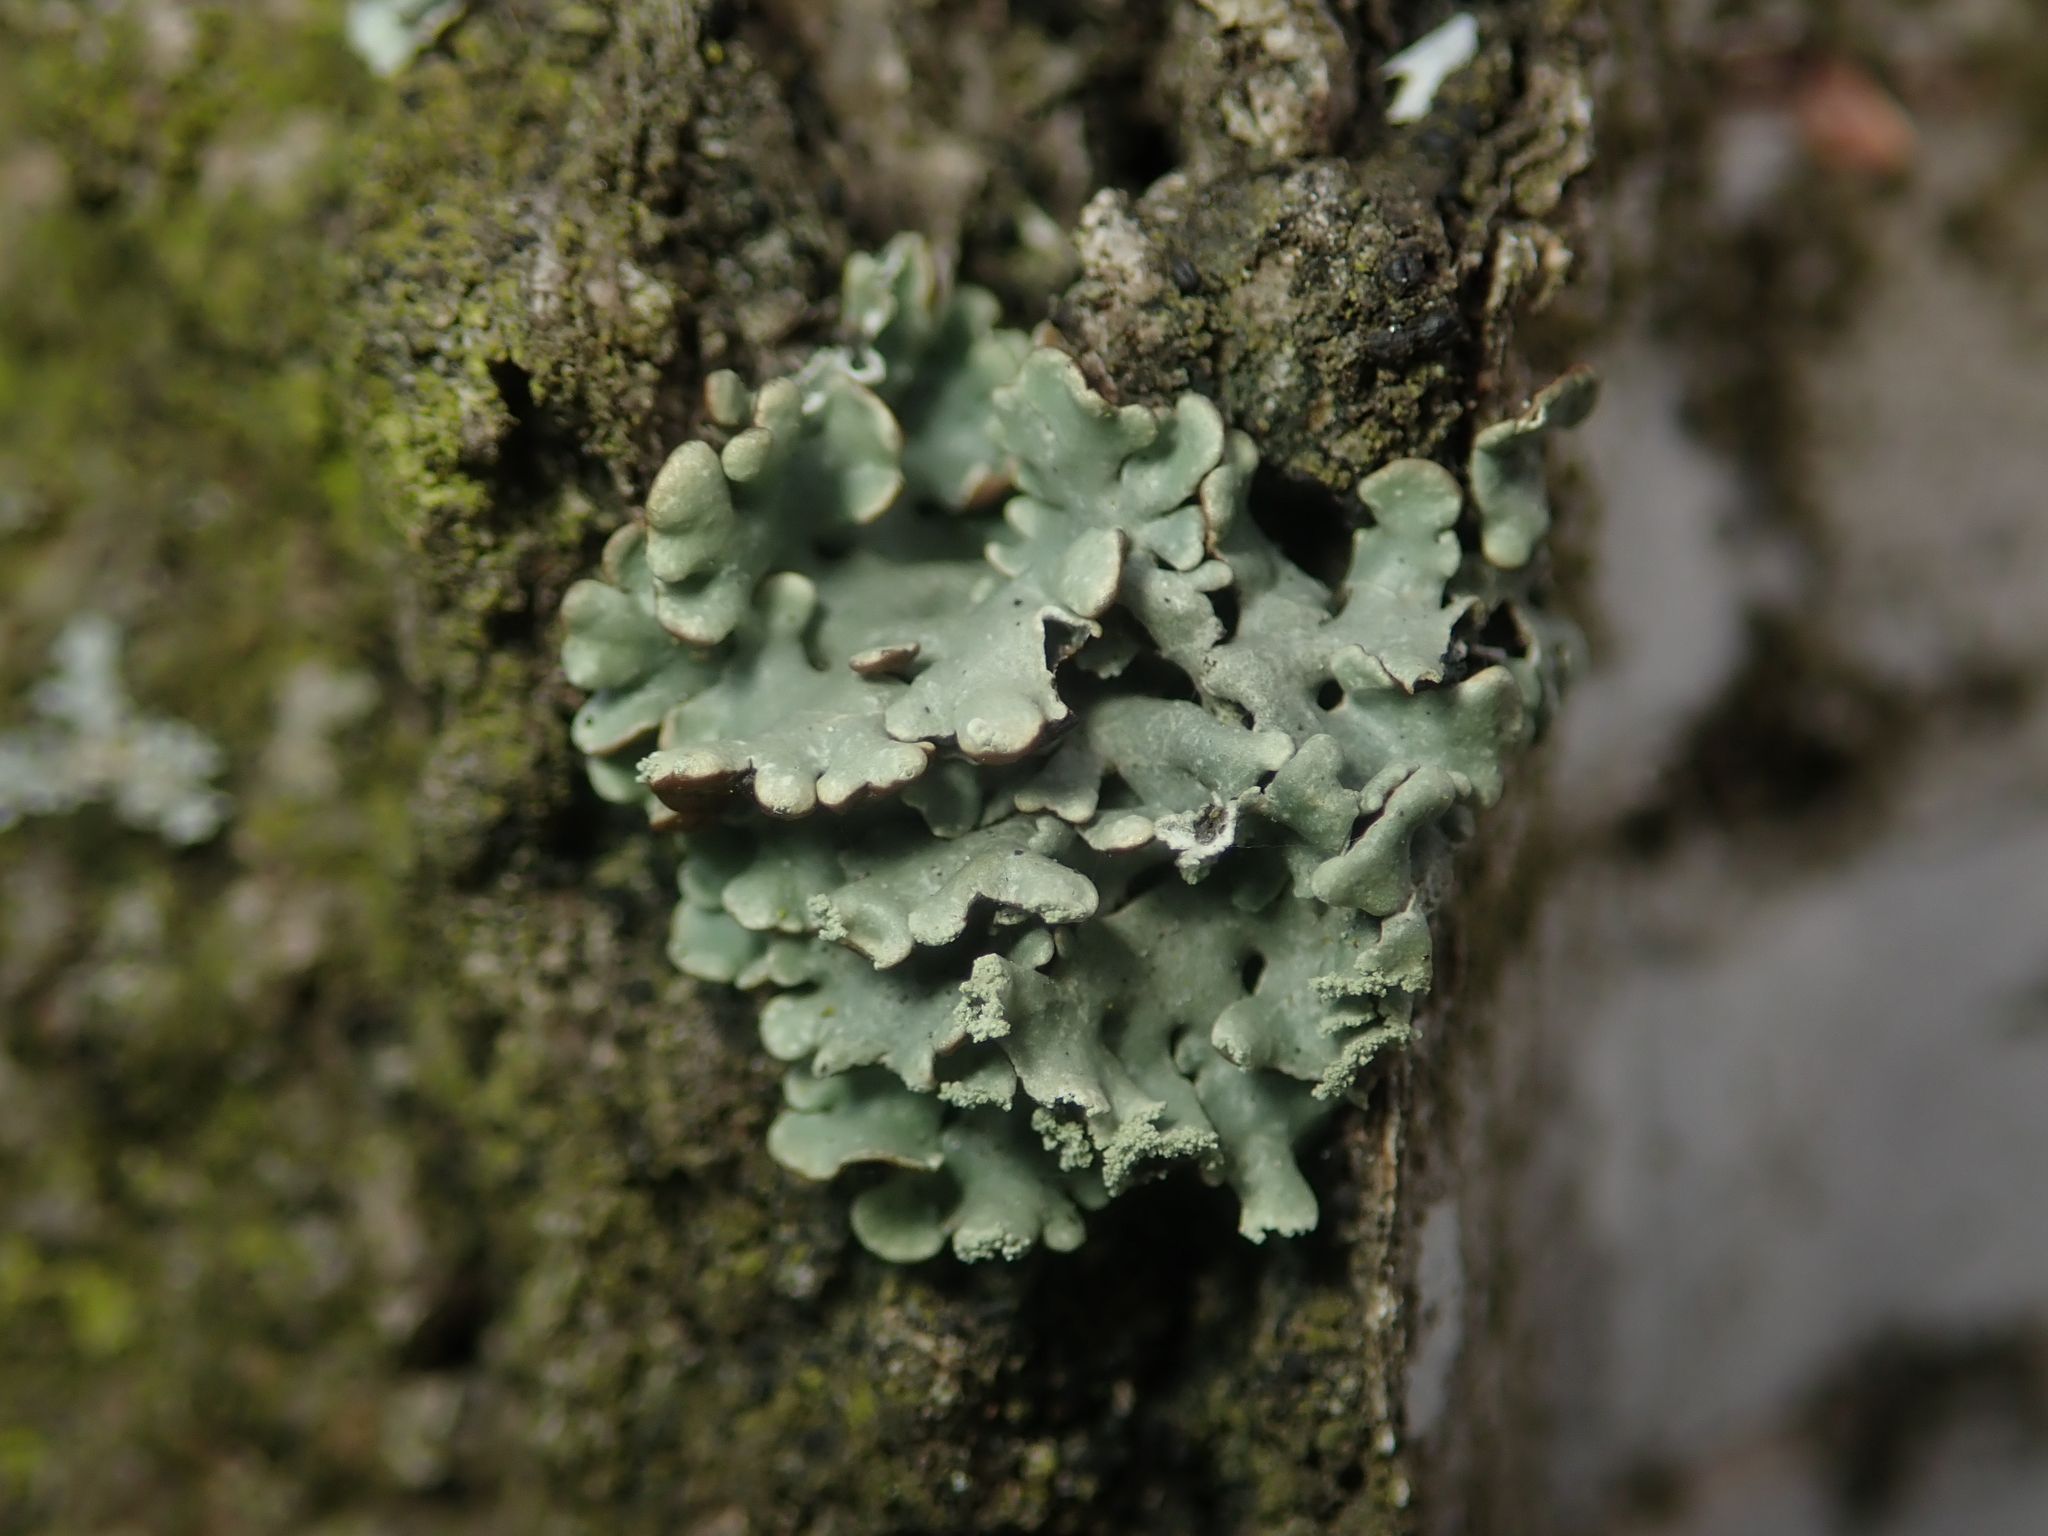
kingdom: Fungi
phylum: Ascomycota
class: Lecanoromycetes
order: Lecanorales
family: Parmeliaceae
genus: Hypogymnia
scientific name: Hypogymnia physodes
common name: Dark crottle
